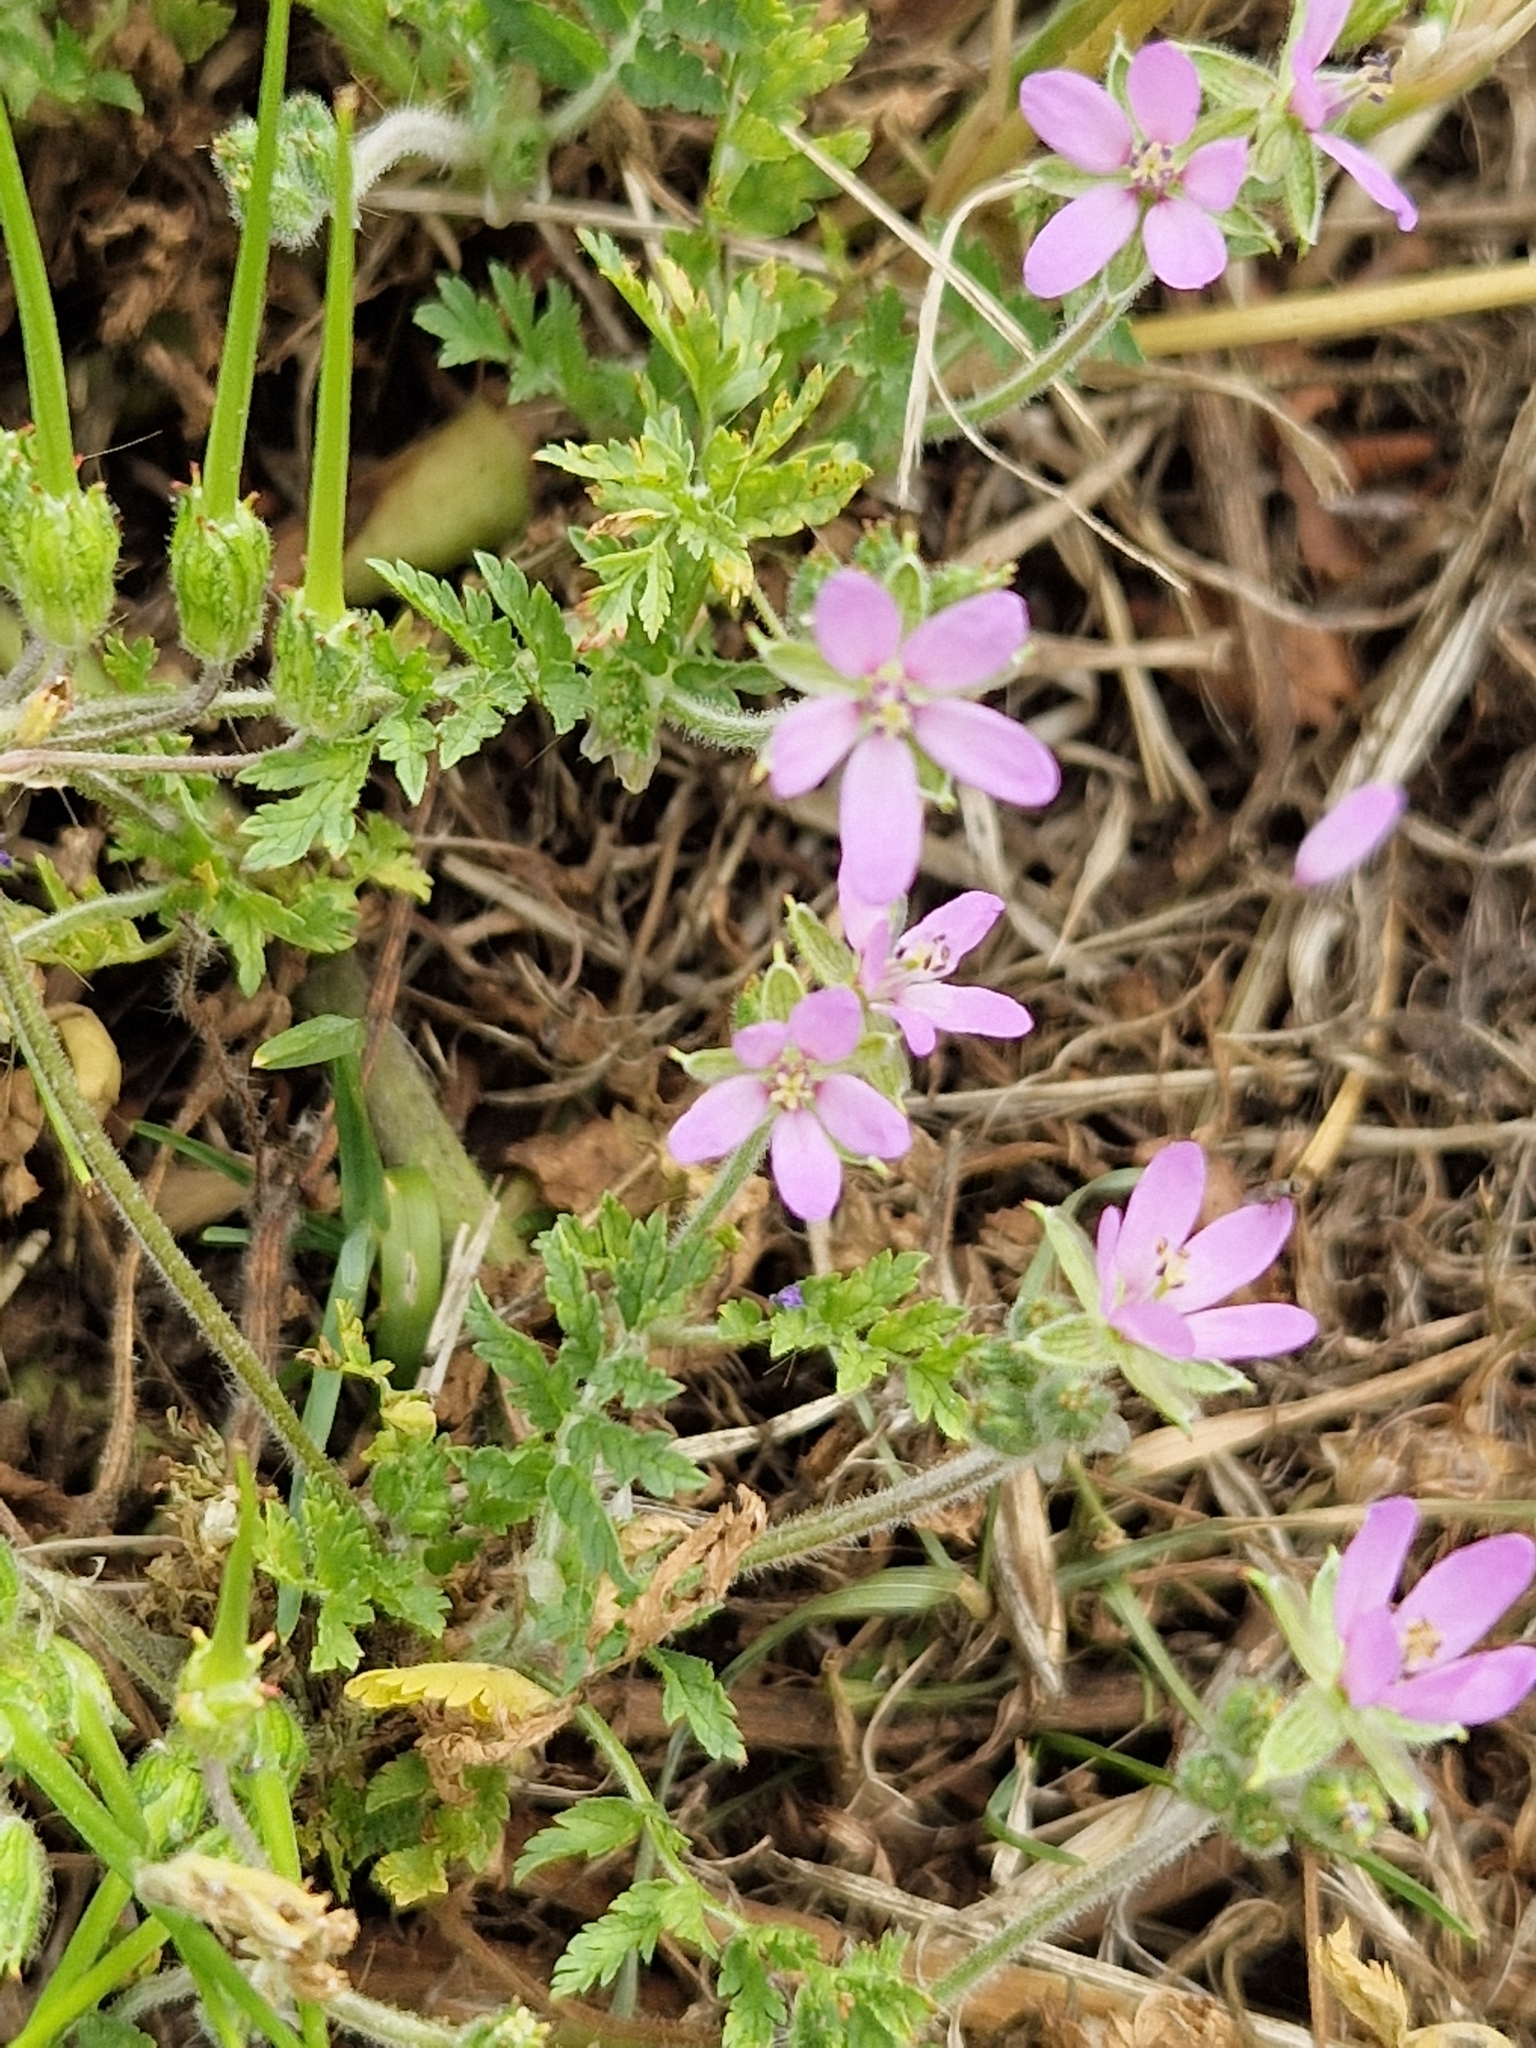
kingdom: Plantae
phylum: Tracheophyta
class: Magnoliopsida
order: Geraniales
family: Geraniaceae
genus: Erodium
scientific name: Erodium moschatum
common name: Musk stork's-bill
